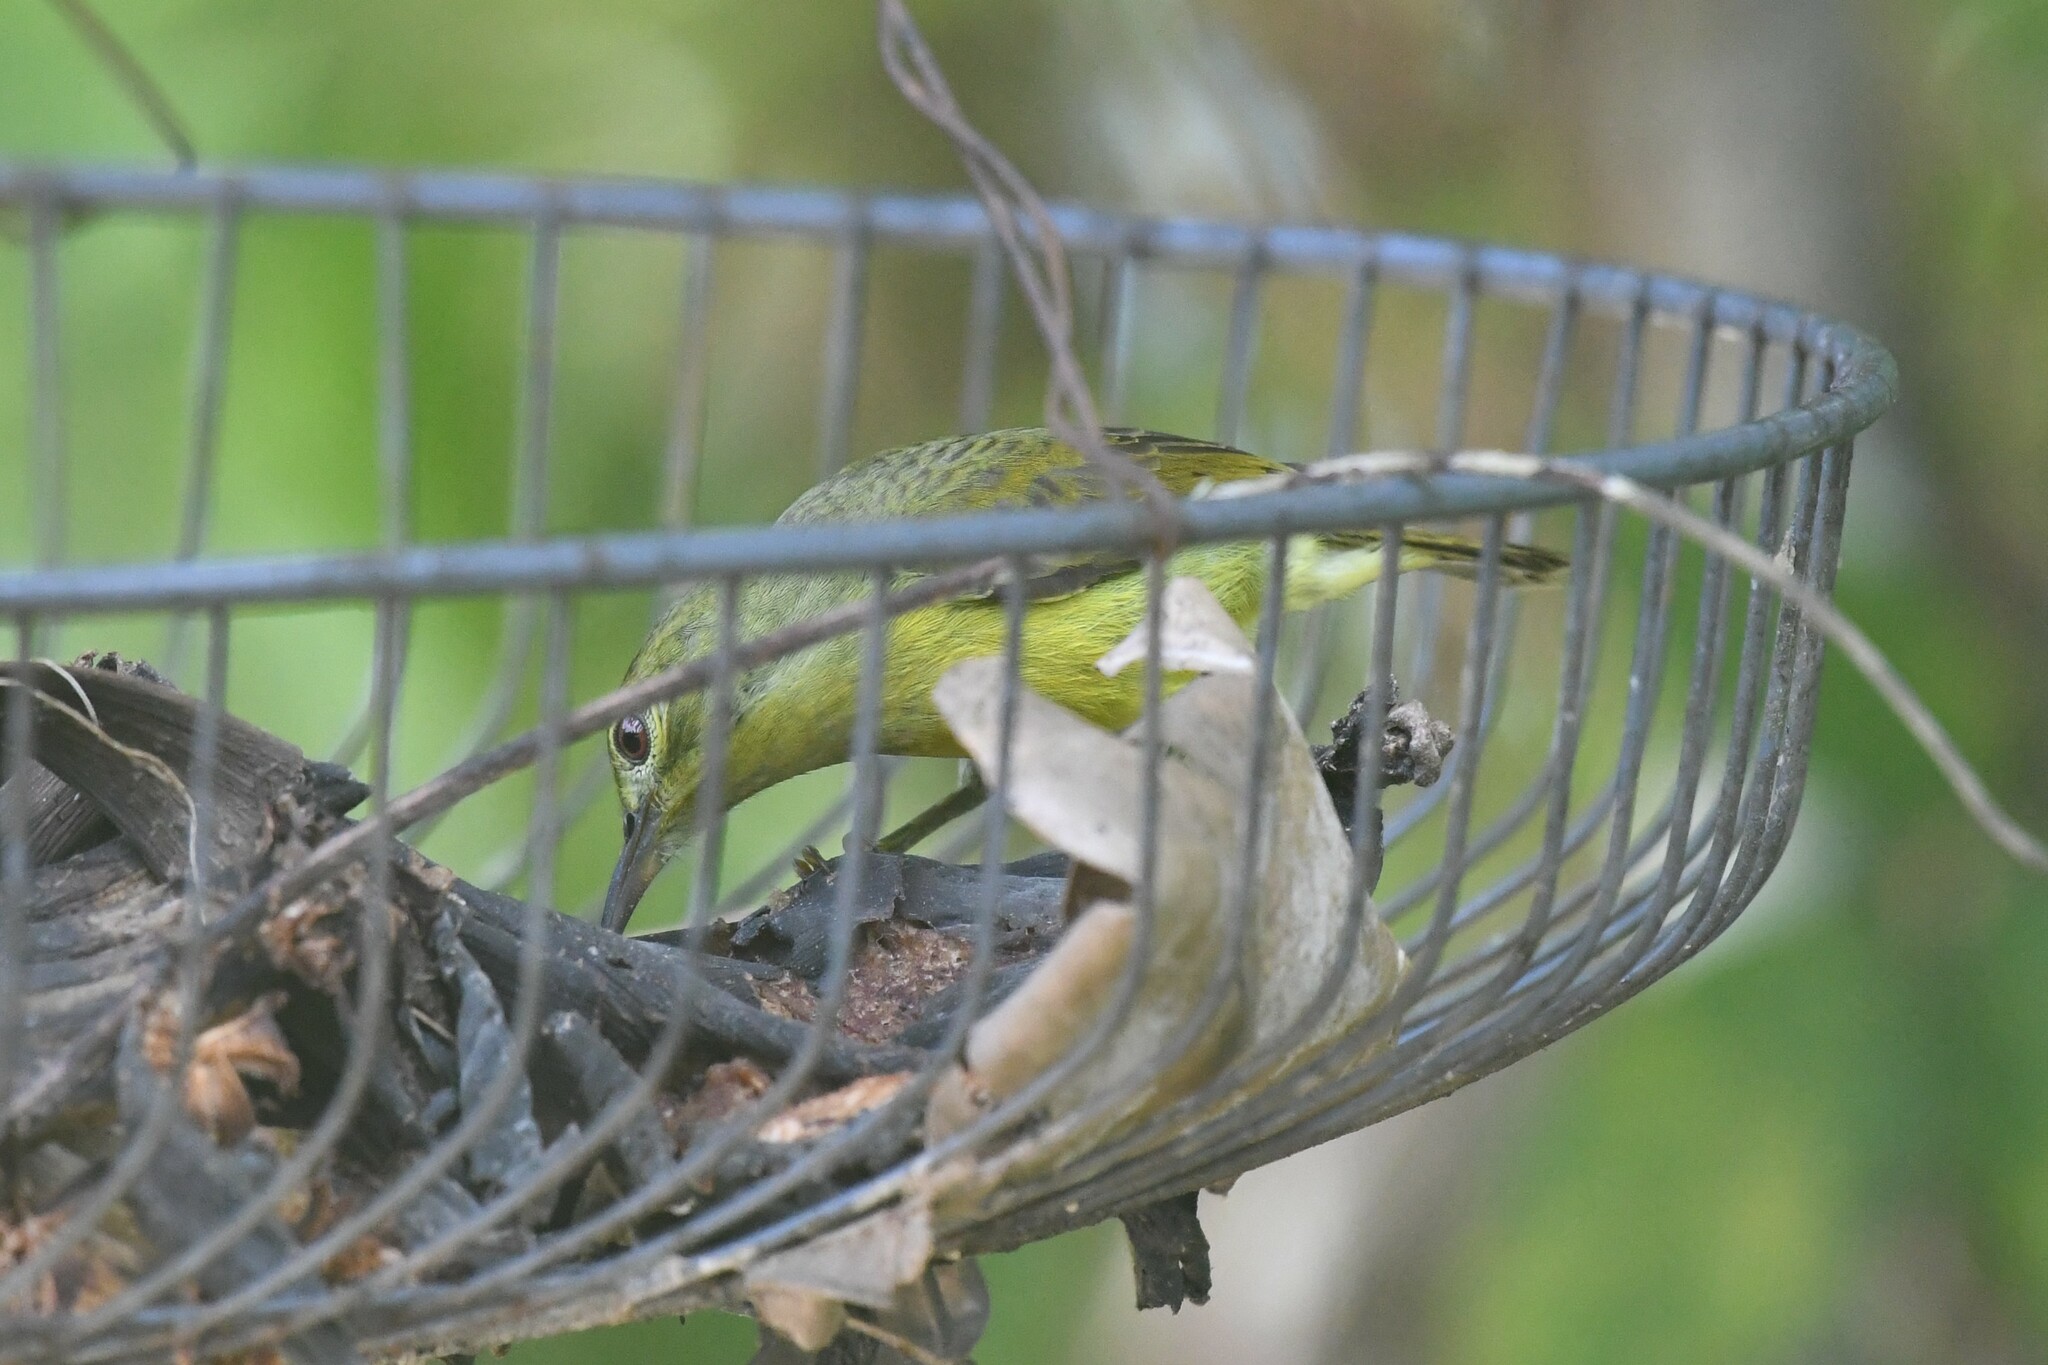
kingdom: Animalia
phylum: Chordata
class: Aves
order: Passeriformes
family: Nectariniidae
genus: Anthreptes
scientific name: Anthreptes malacensis
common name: Brown-throated sunbird
